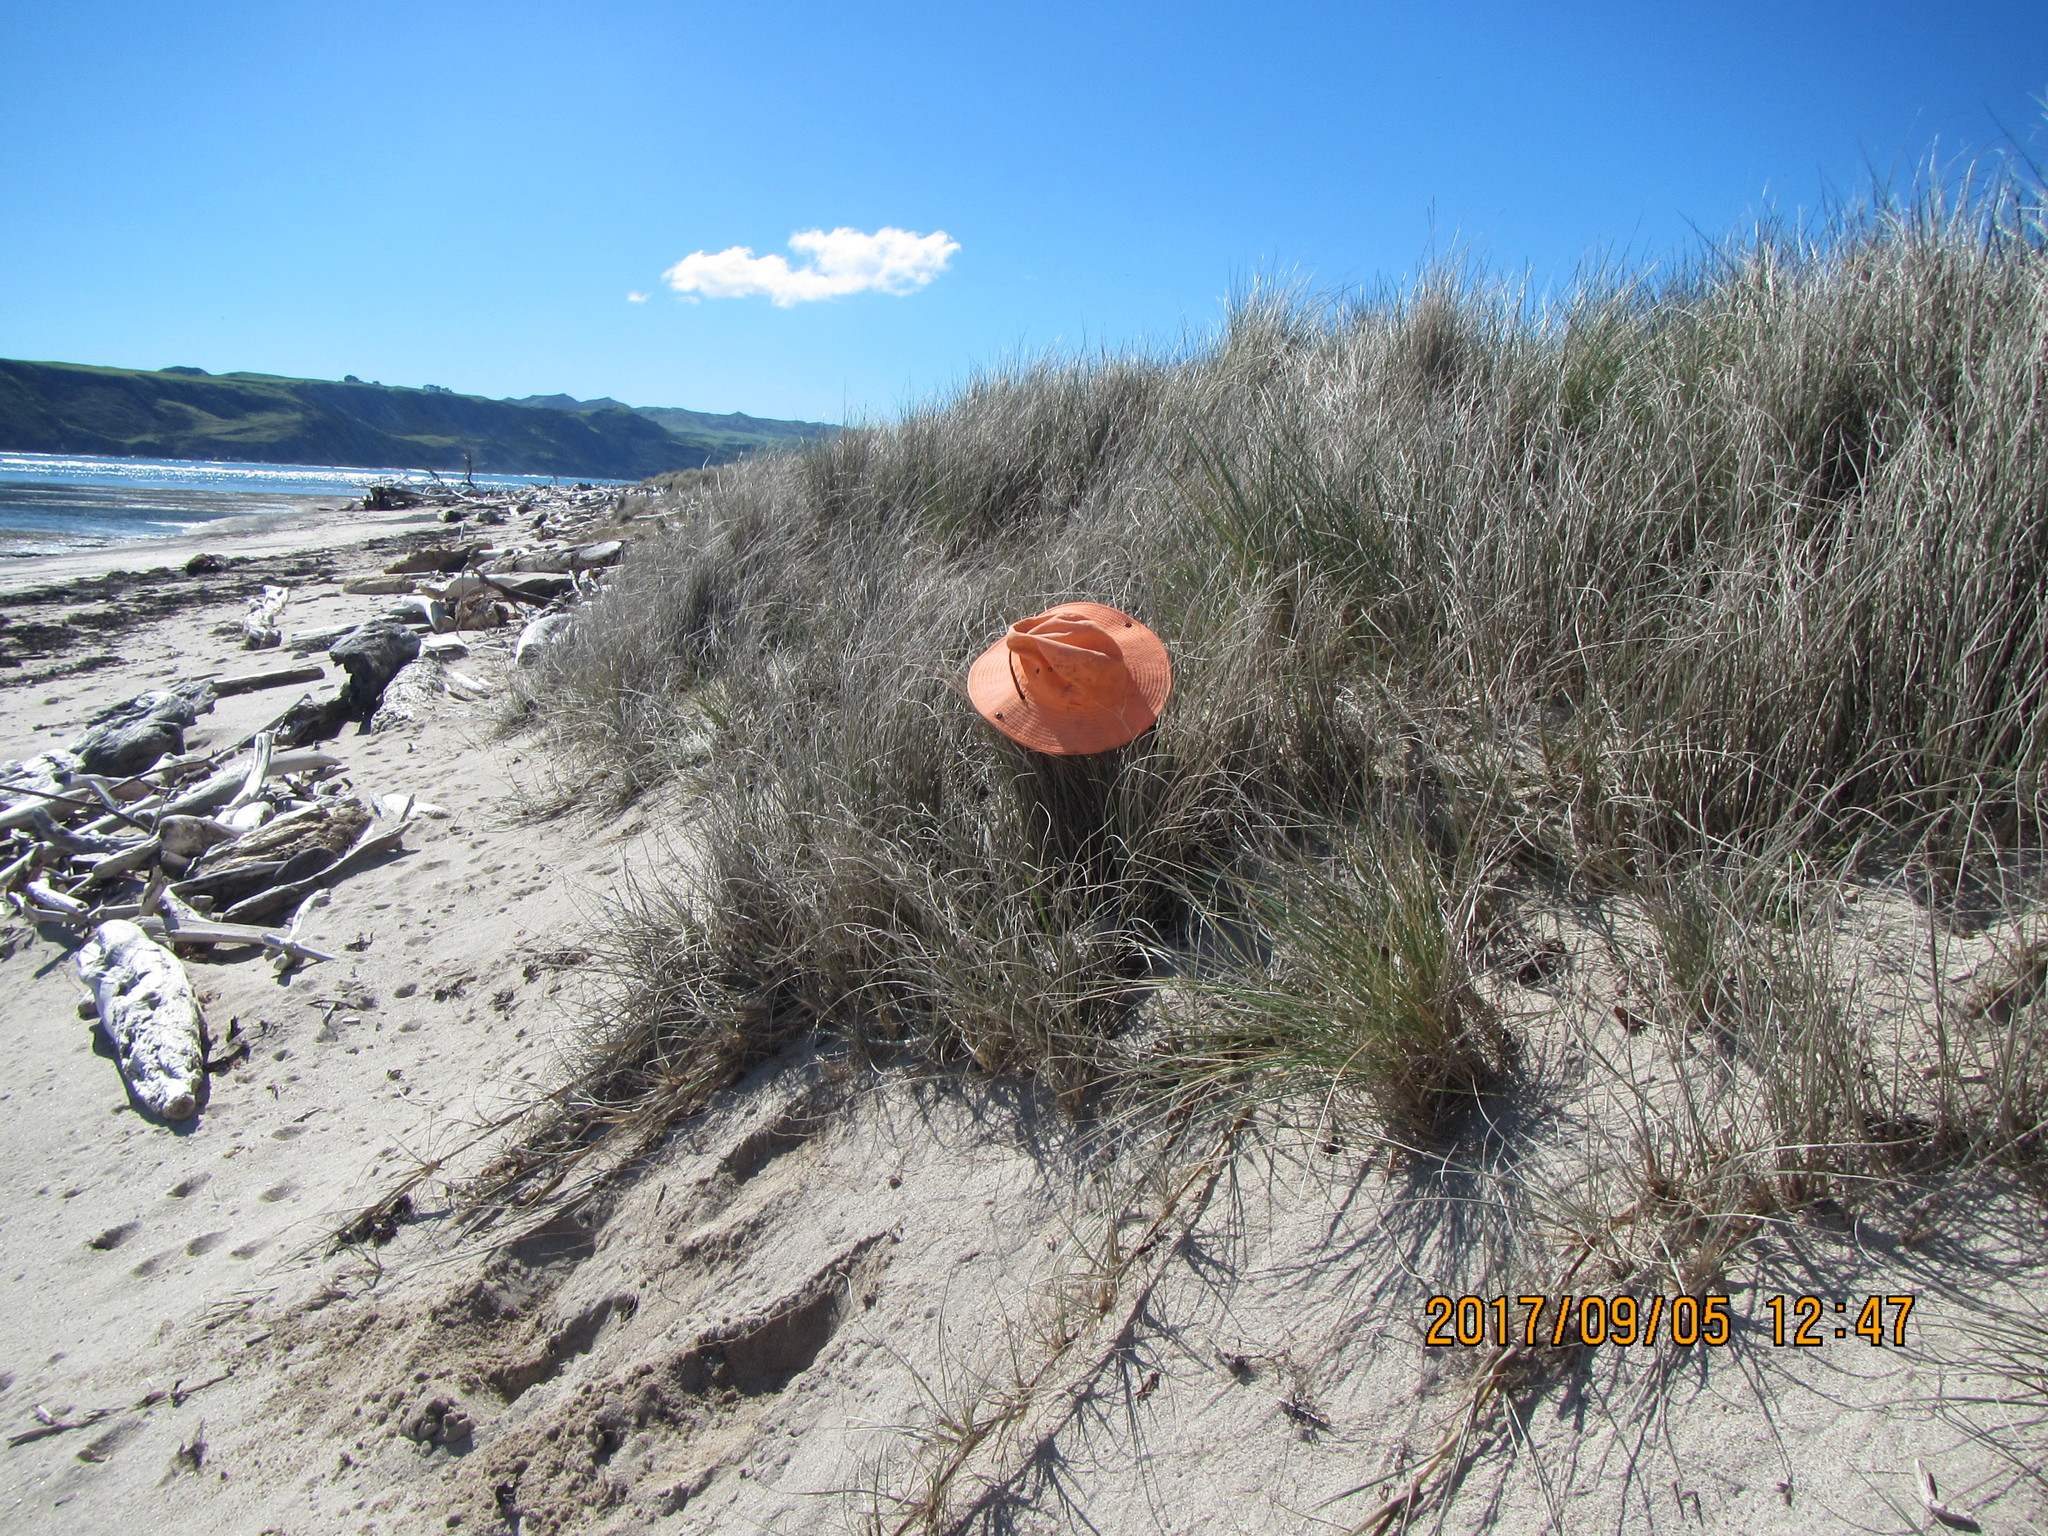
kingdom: Plantae
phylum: Tracheophyta
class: Liliopsida
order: Poales
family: Poaceae
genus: Spinifex
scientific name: Spinifex sericeus
